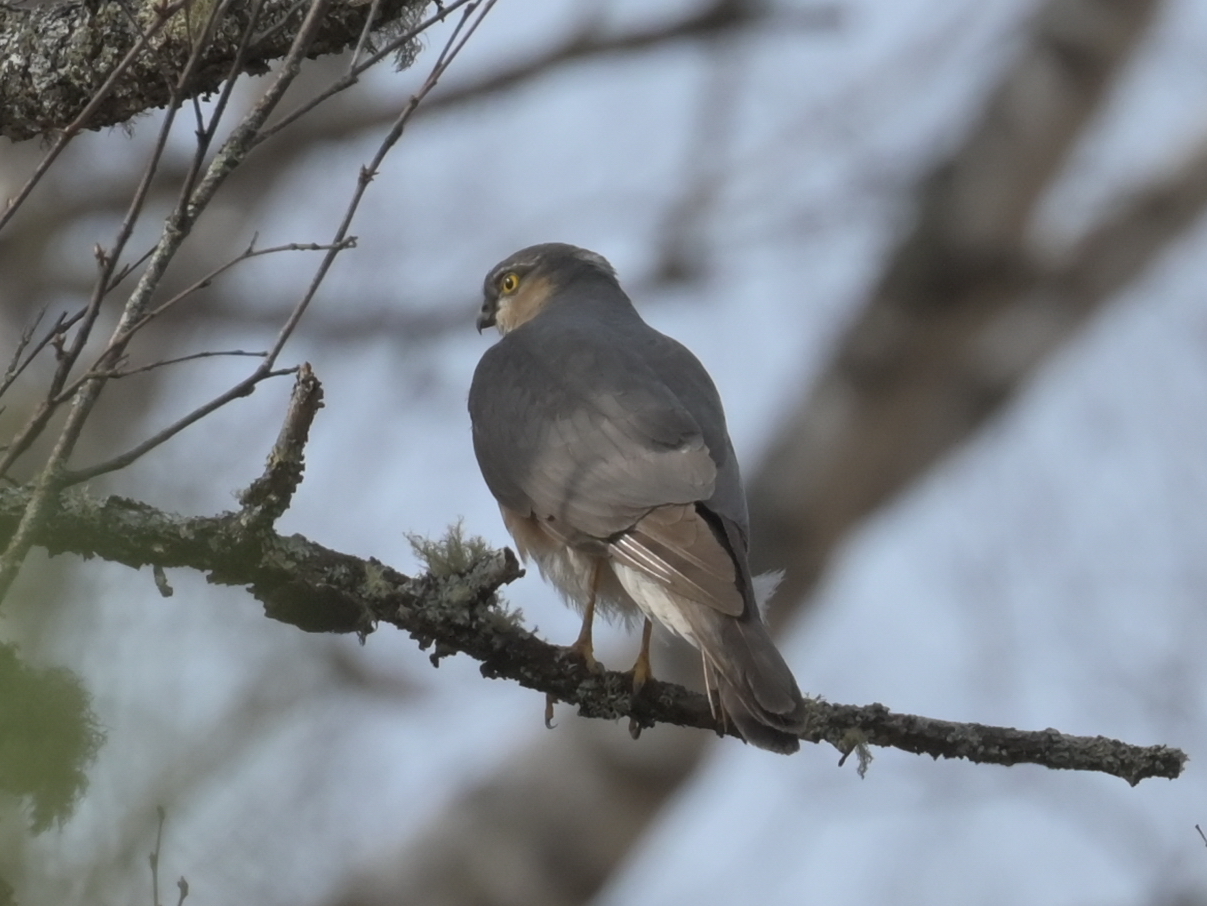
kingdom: Animalia
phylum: Chordata
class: Aves
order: Accipitriformes
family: Accipitridae
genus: Accipiter
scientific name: Accipiter nisus
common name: Eurasian sparrowhawk
